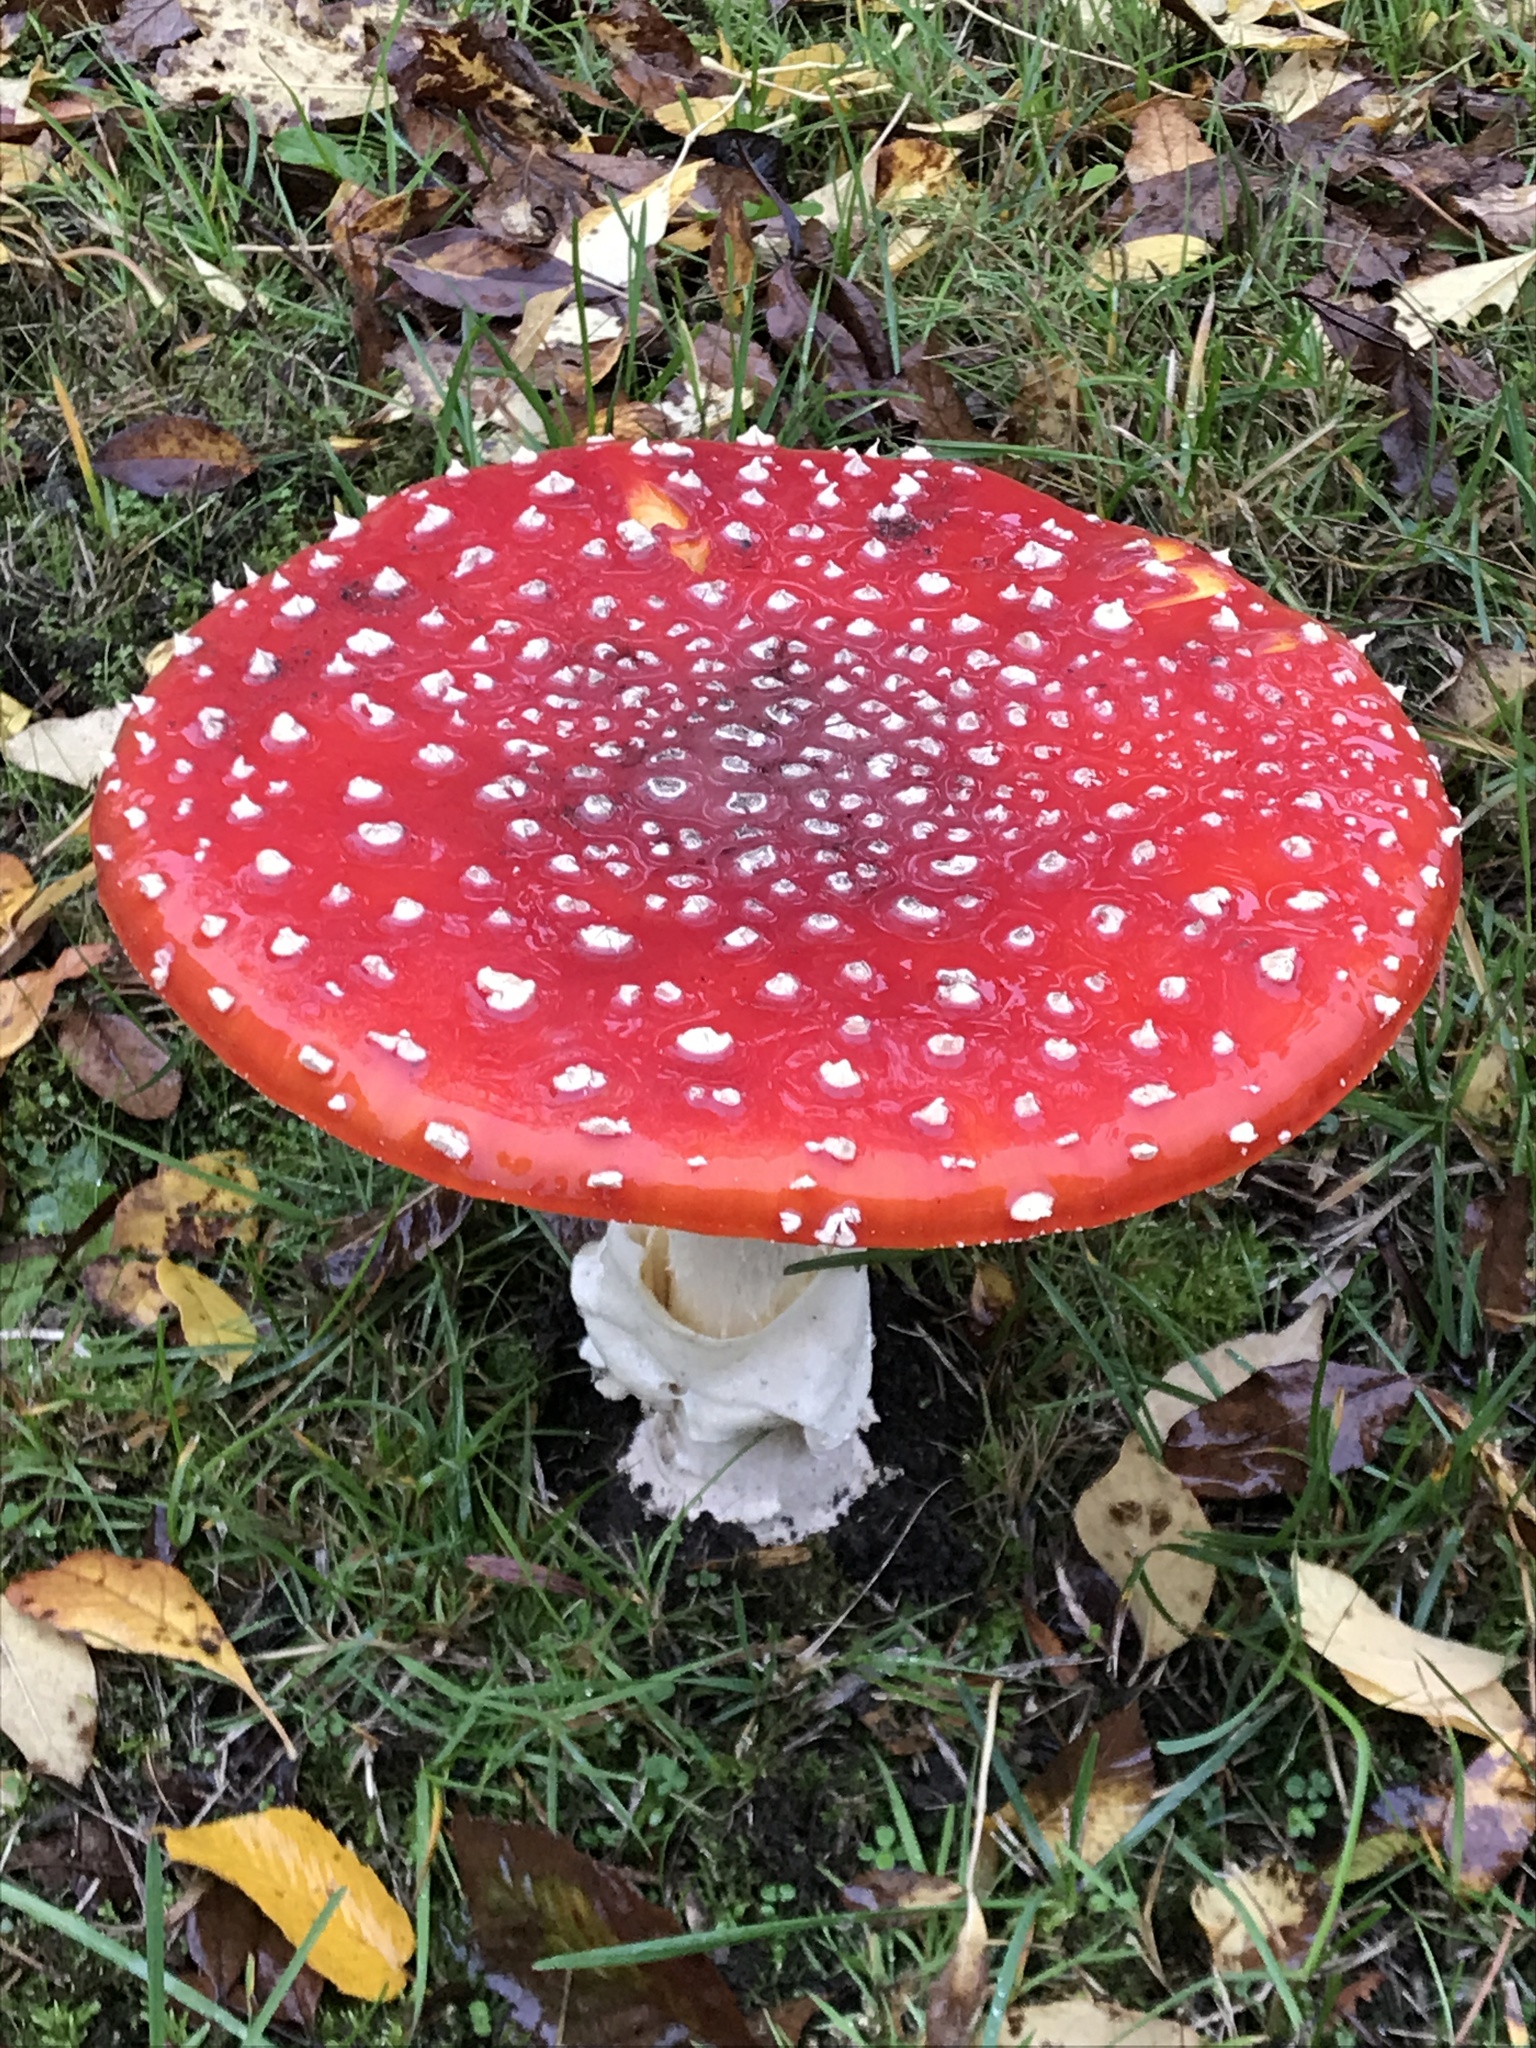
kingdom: Fungi
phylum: Basidiomycota
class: Agaricomycetes
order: Agaricales
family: Amanitaceae
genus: Amanita
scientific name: Amanita muscaria
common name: Fly agaric
